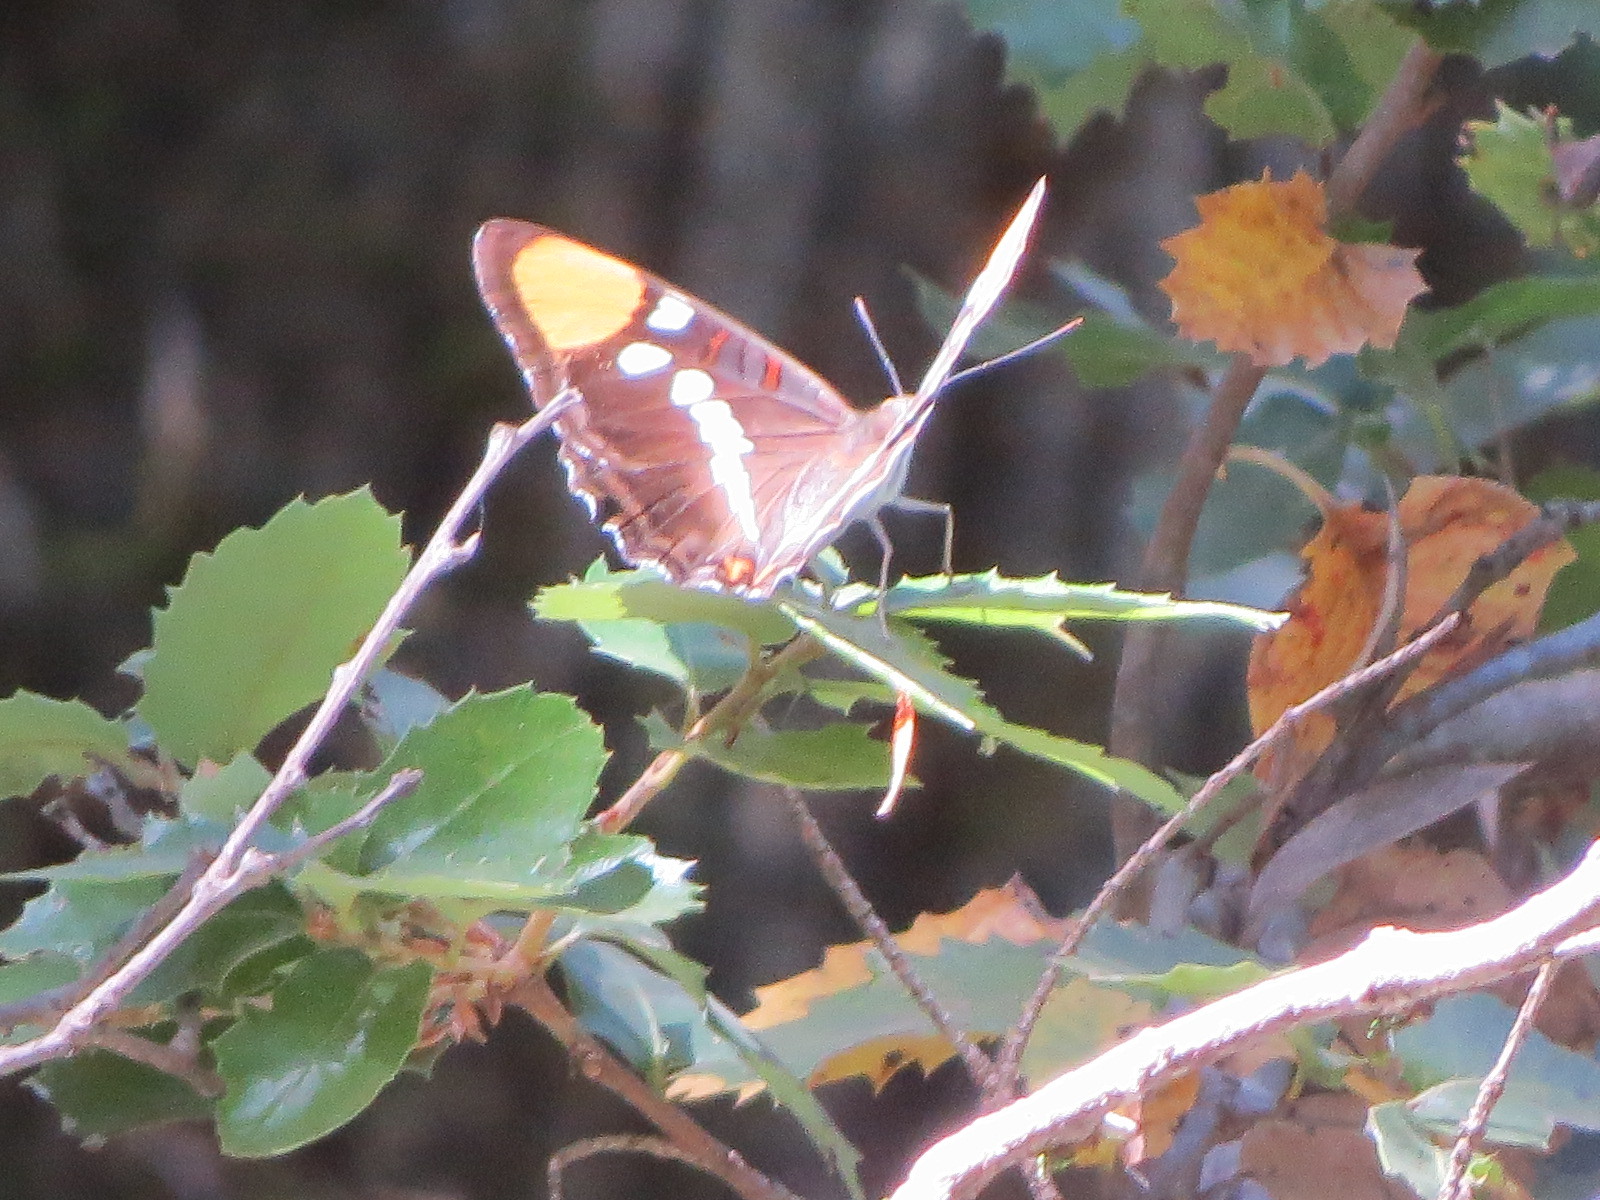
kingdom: Animalia
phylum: Arthropoda
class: Insecta
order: Lepidoptera
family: Nymphalidae
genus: Limenitis
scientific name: Limenitis bredowii
